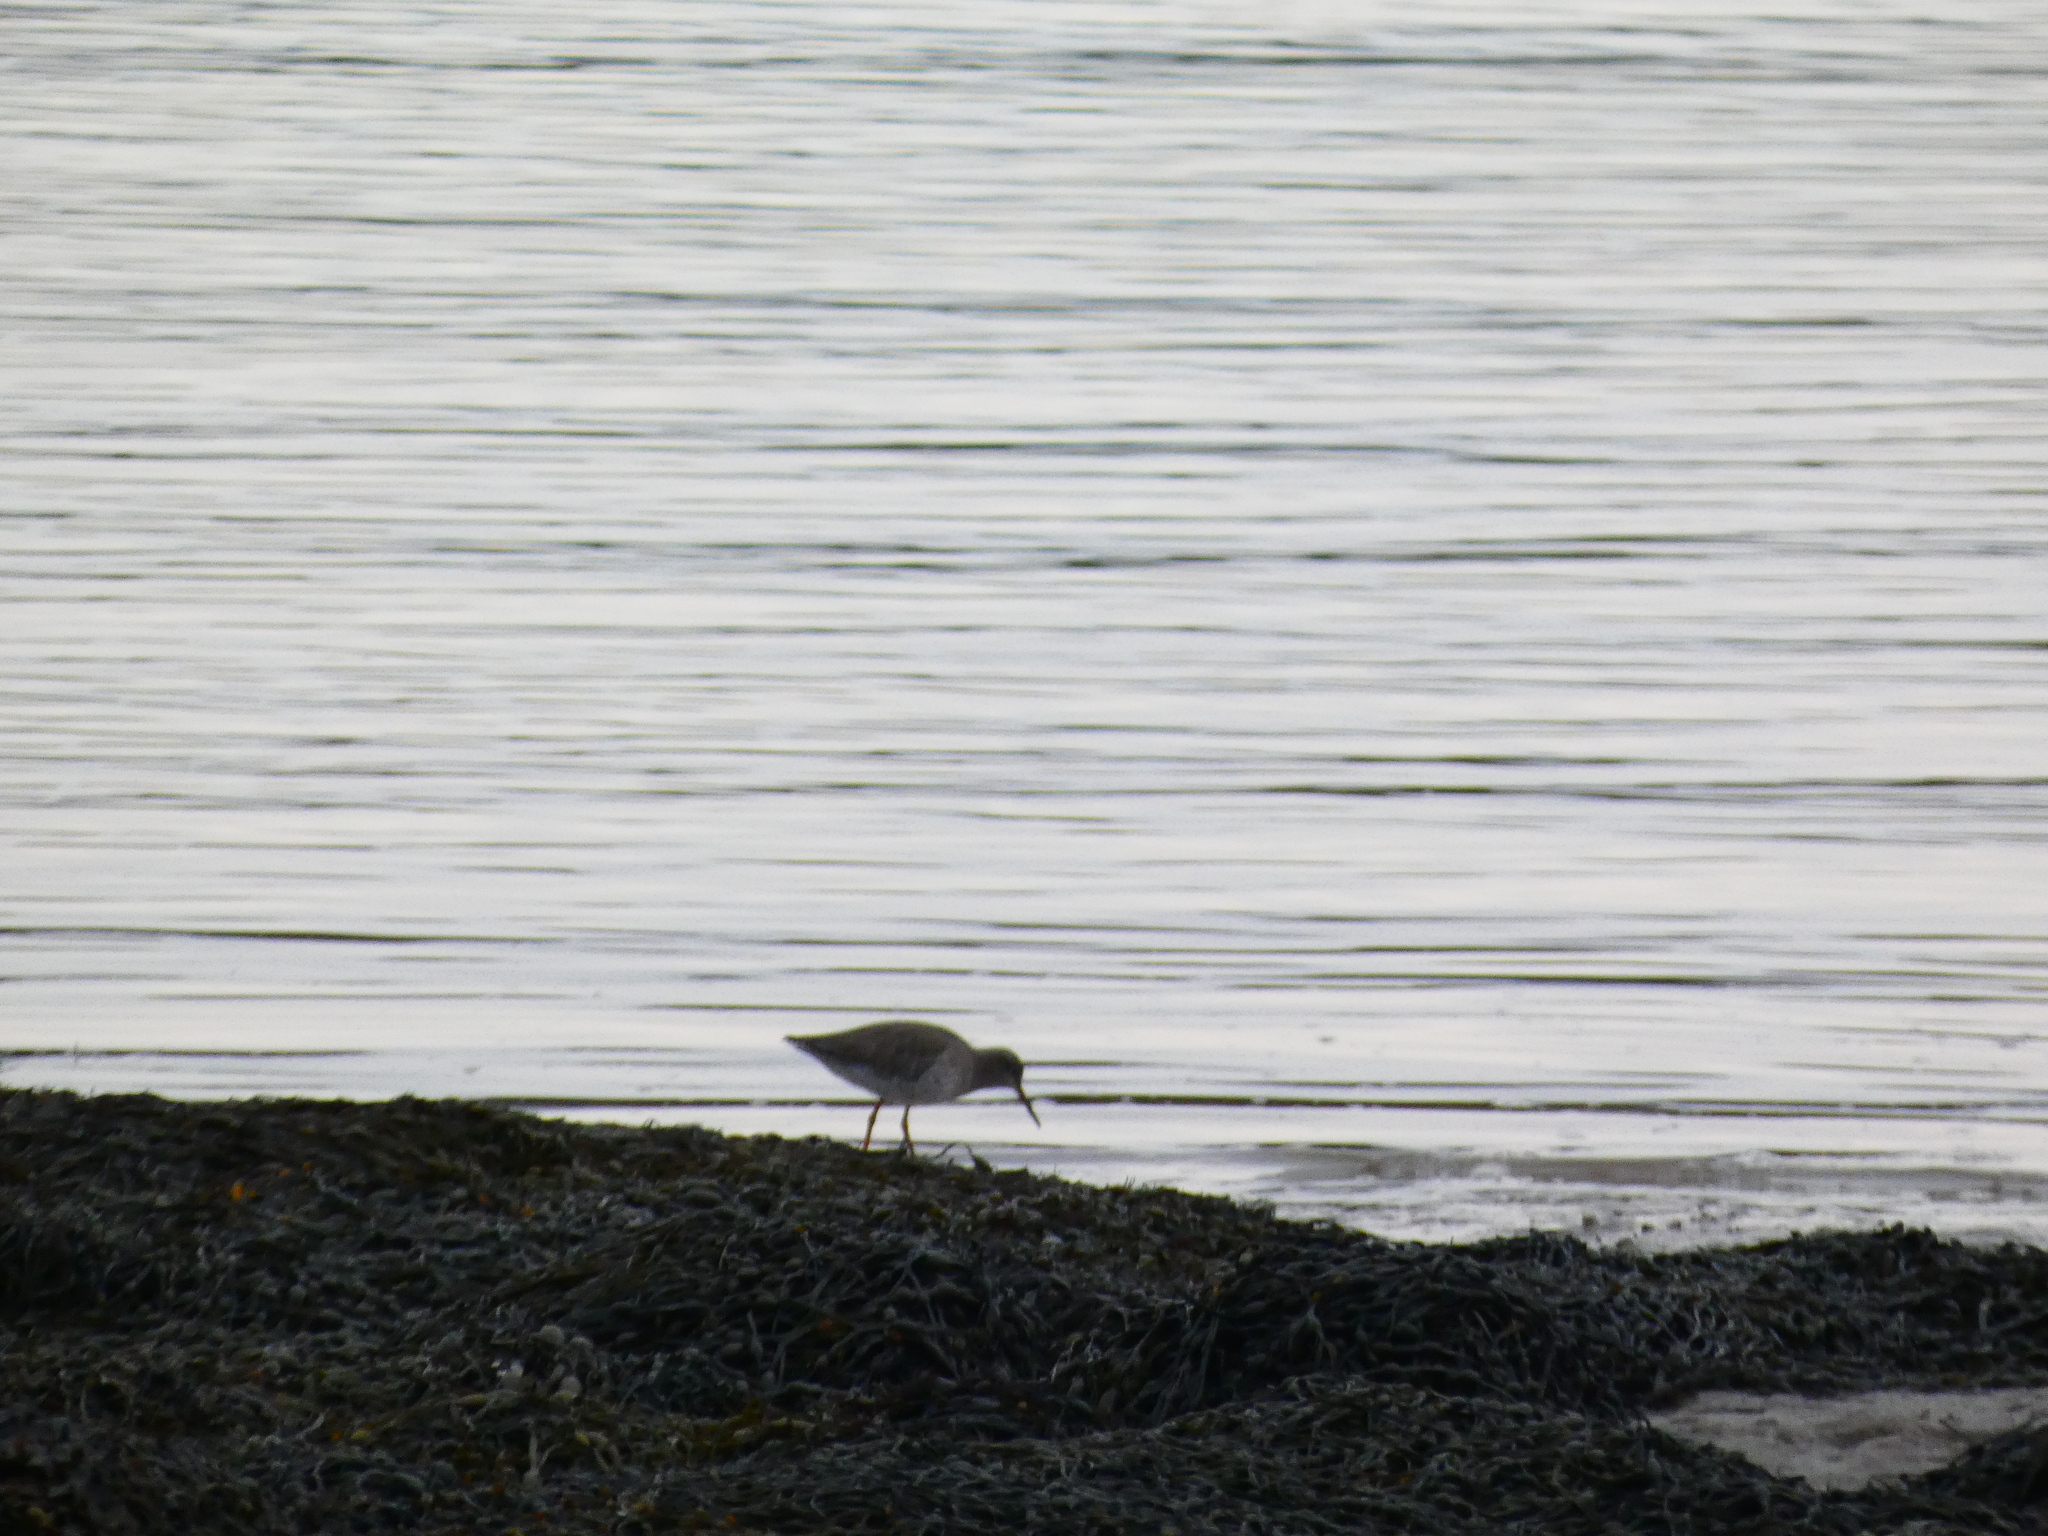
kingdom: Animalia
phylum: Chordata
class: Aves
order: Charadriiformes
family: Scolopacidae
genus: Tringa
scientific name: Tringa totanus
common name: Common redshank
